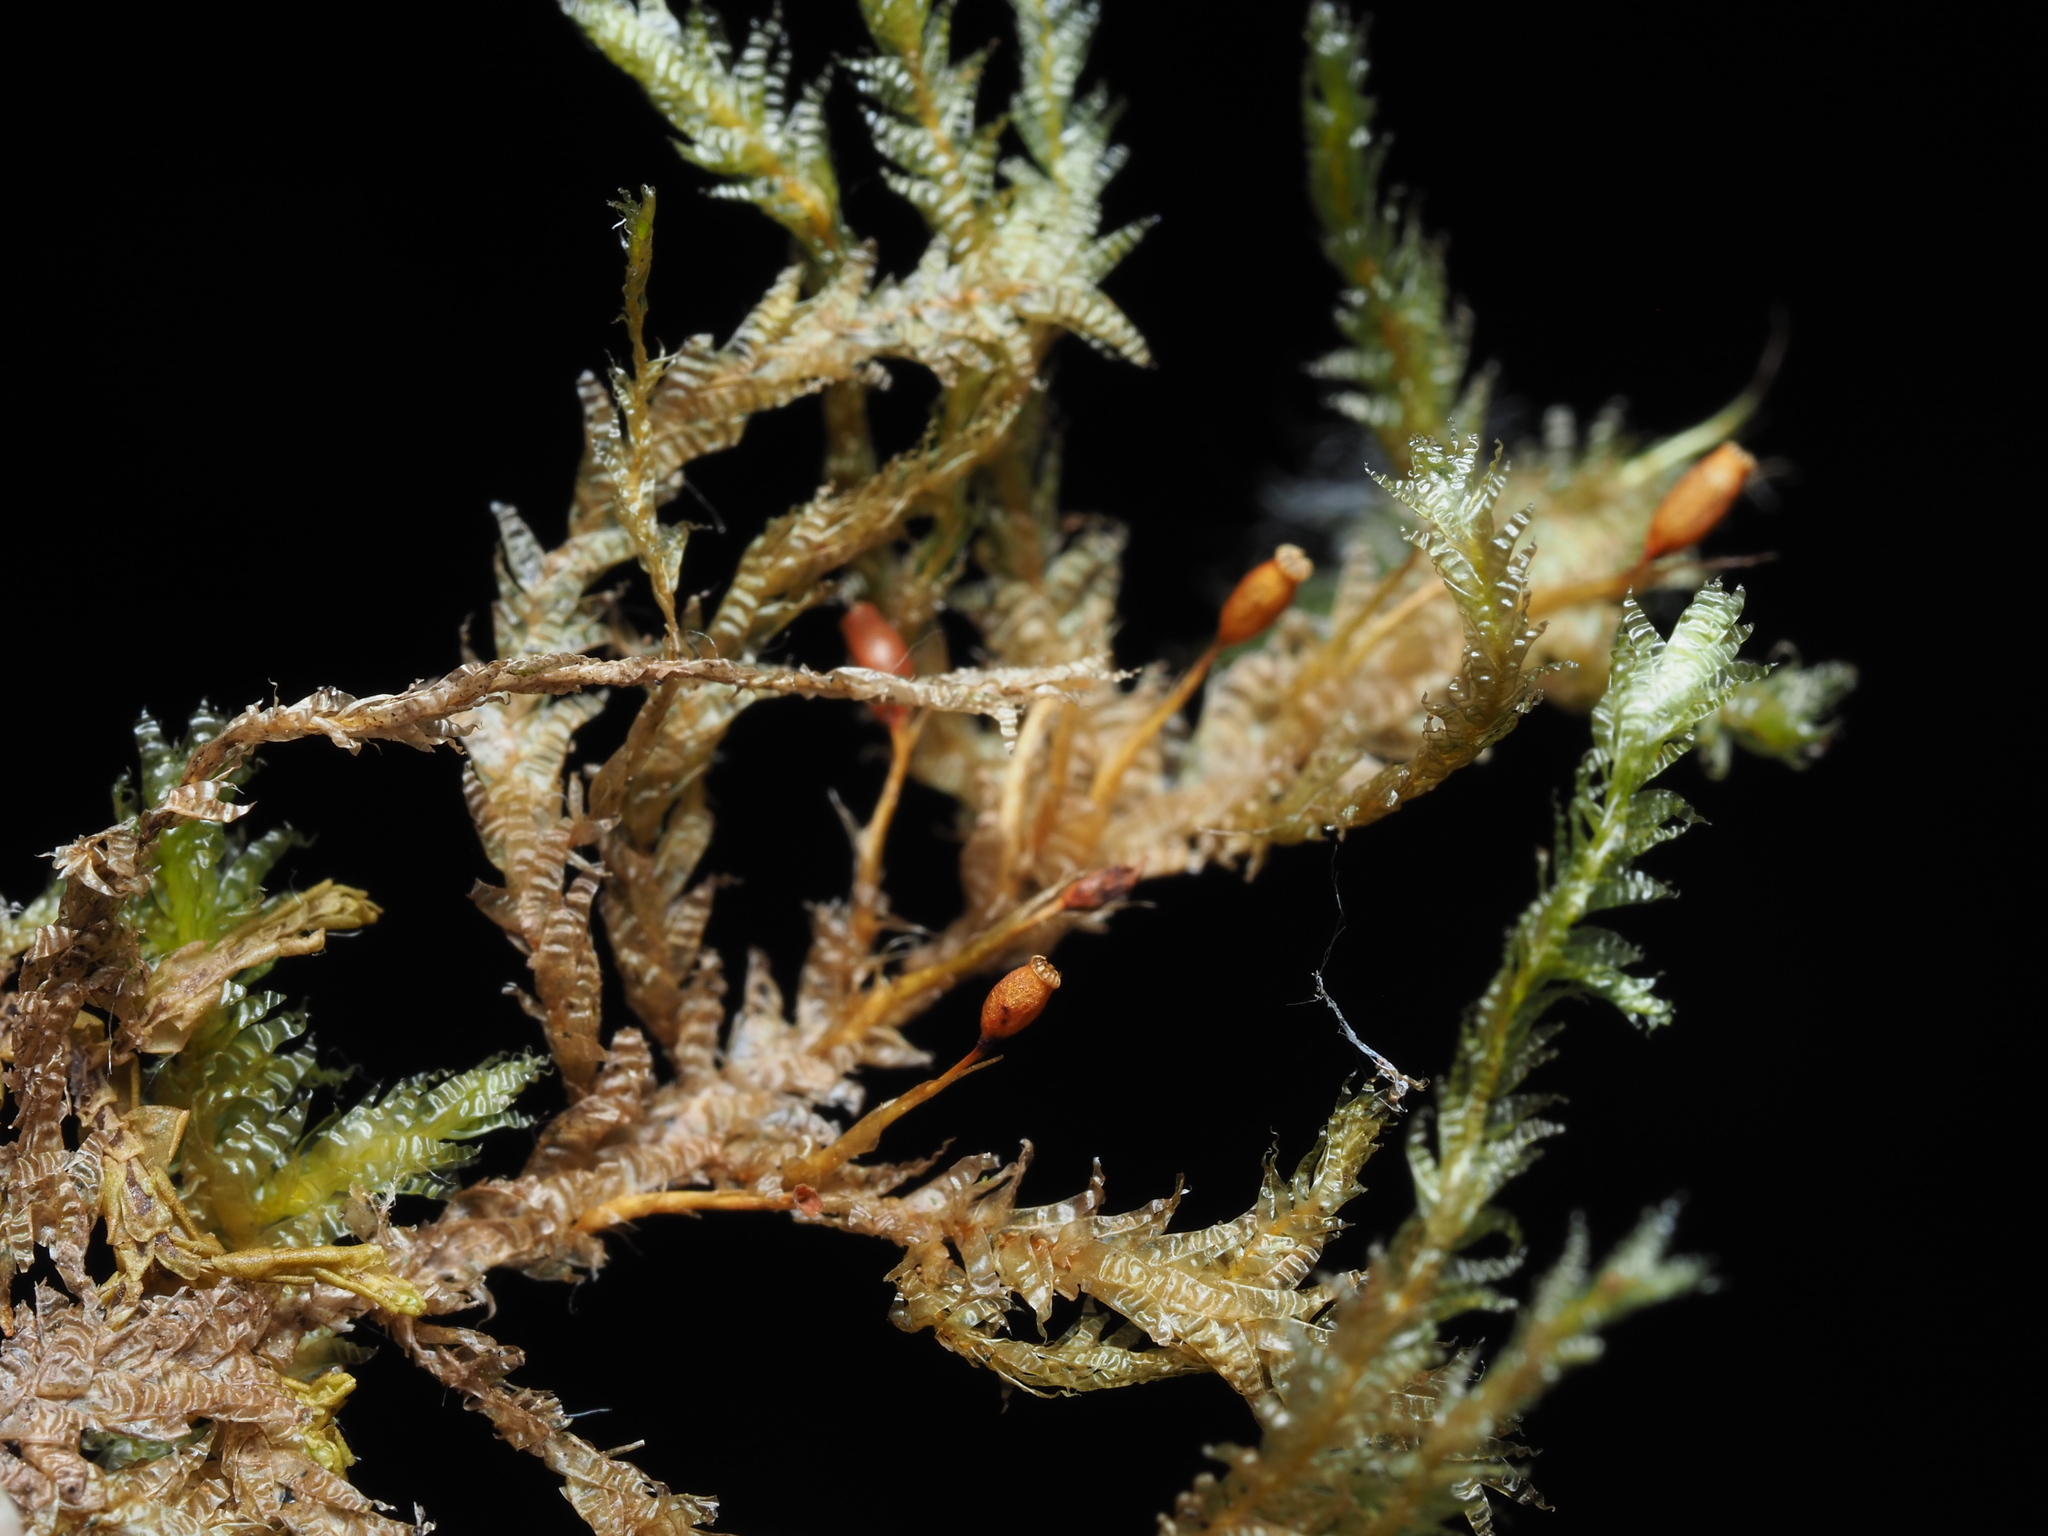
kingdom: Plantae
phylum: Bryophyta
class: Bryopsida
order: Hypnales
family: Neckeraceae
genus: Neckera
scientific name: Neckera douglasii
